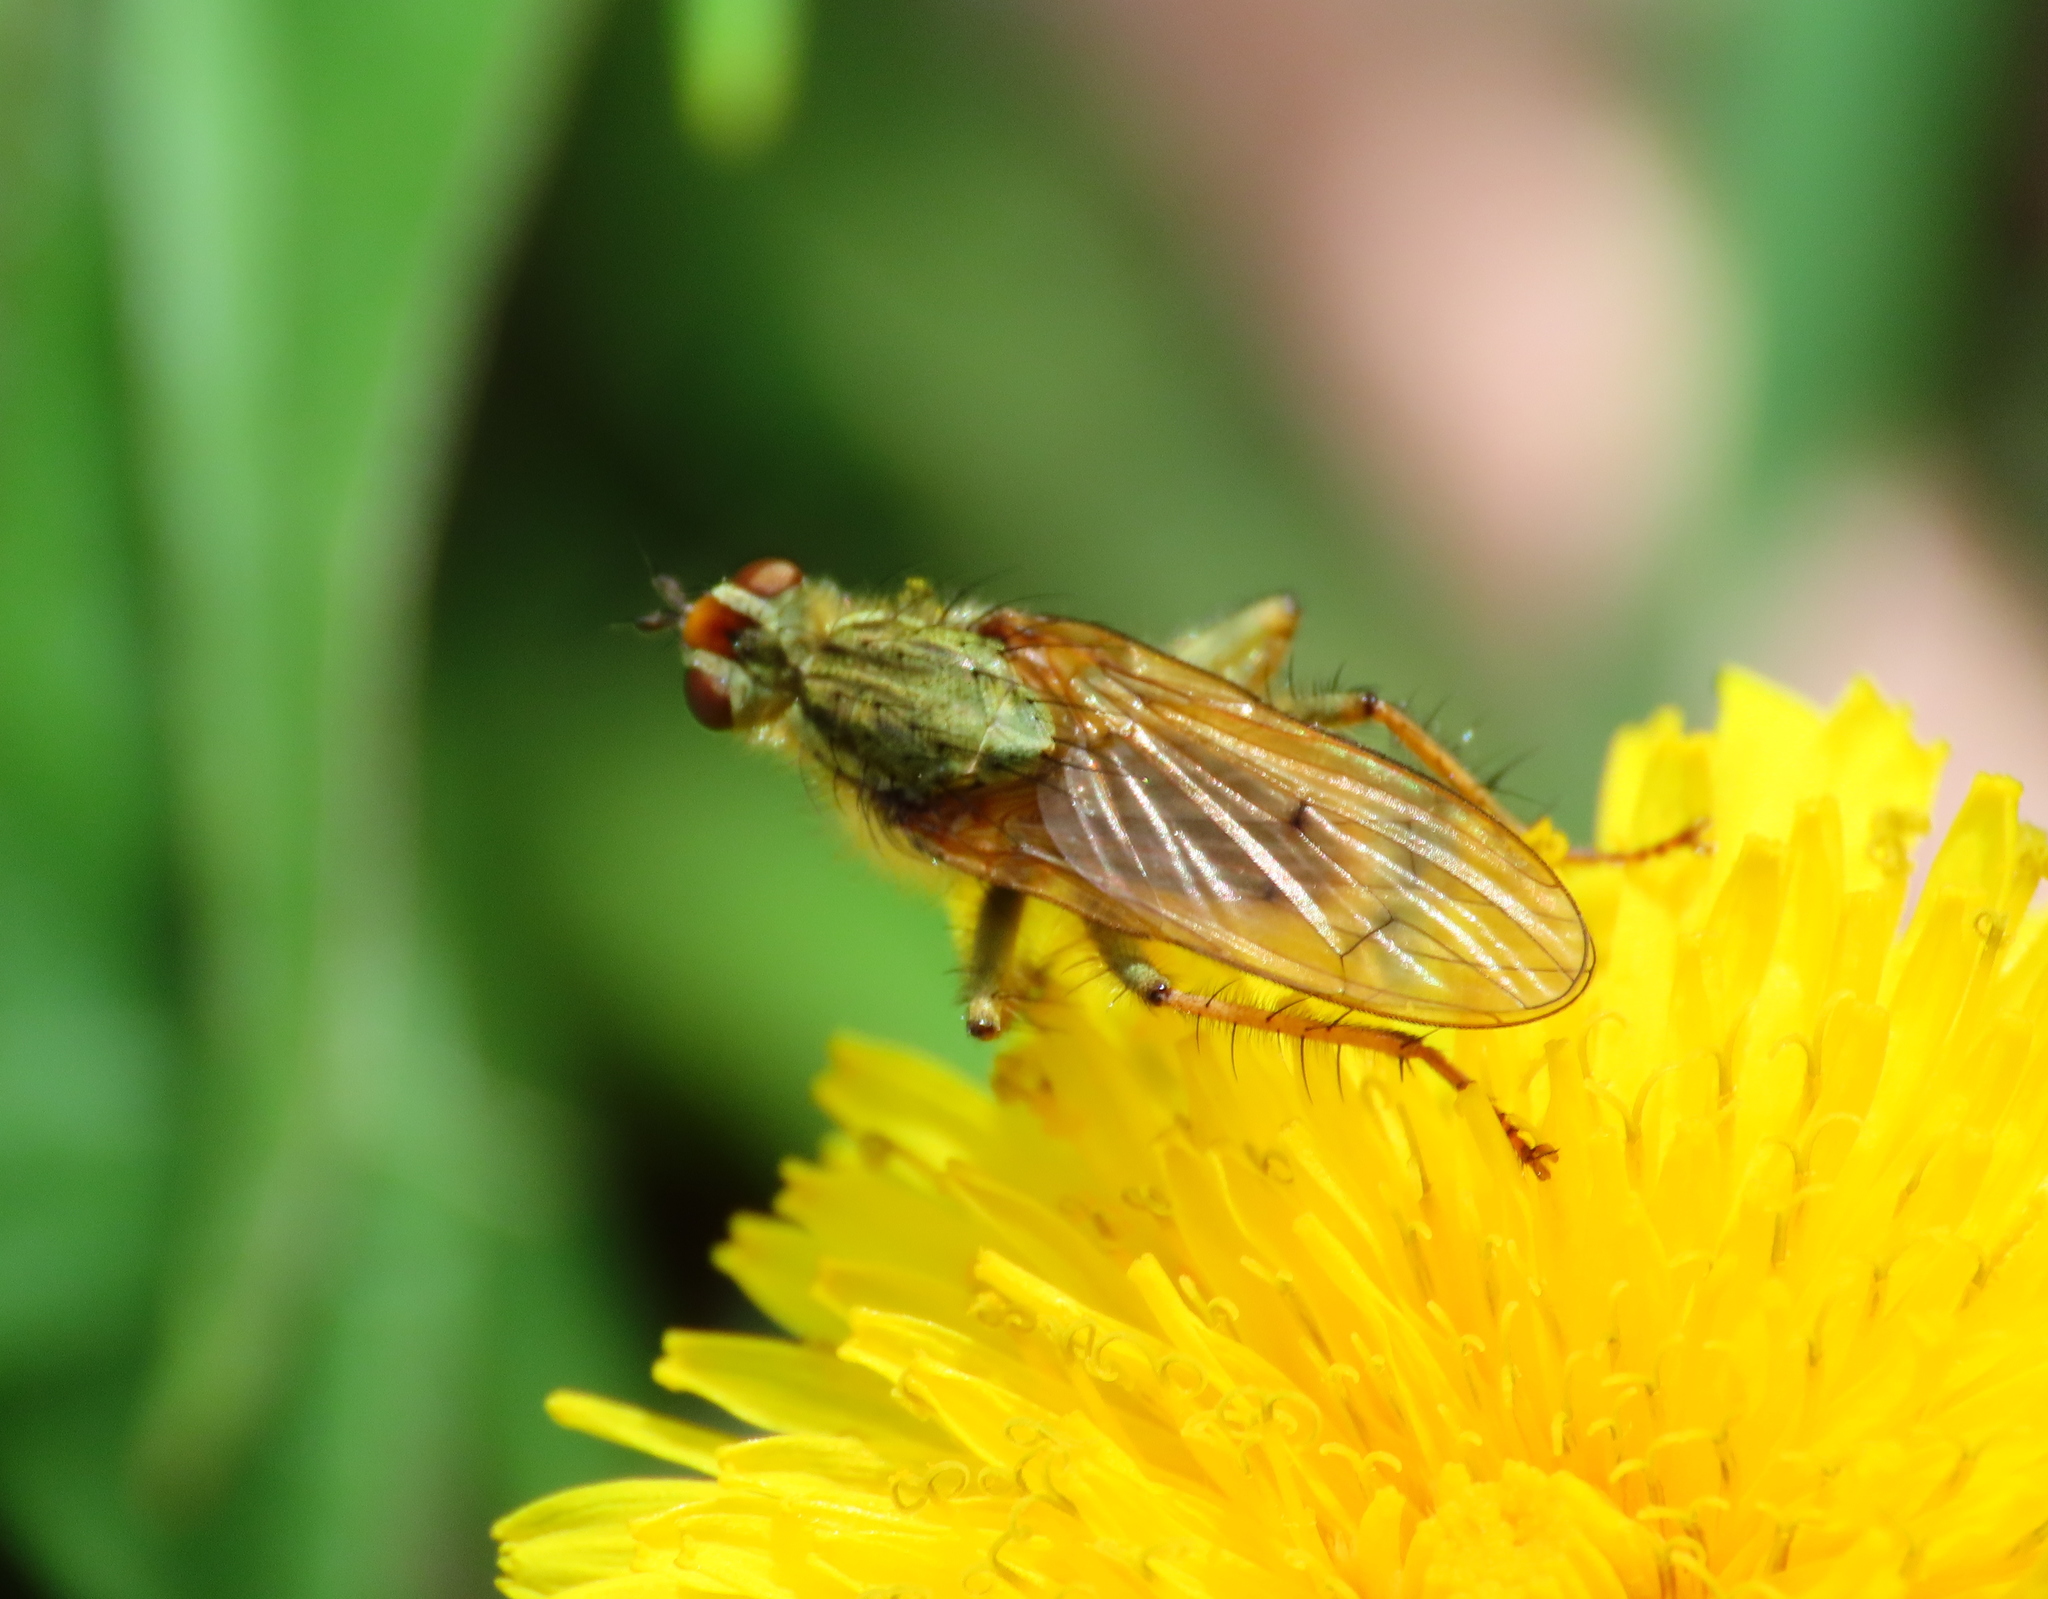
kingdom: Animalia
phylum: Arthropoda
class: Insecta
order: Diptera
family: Scathophagidae
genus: Scathophaga
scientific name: Scathophaga stercoraria
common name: Yellow dung fly
